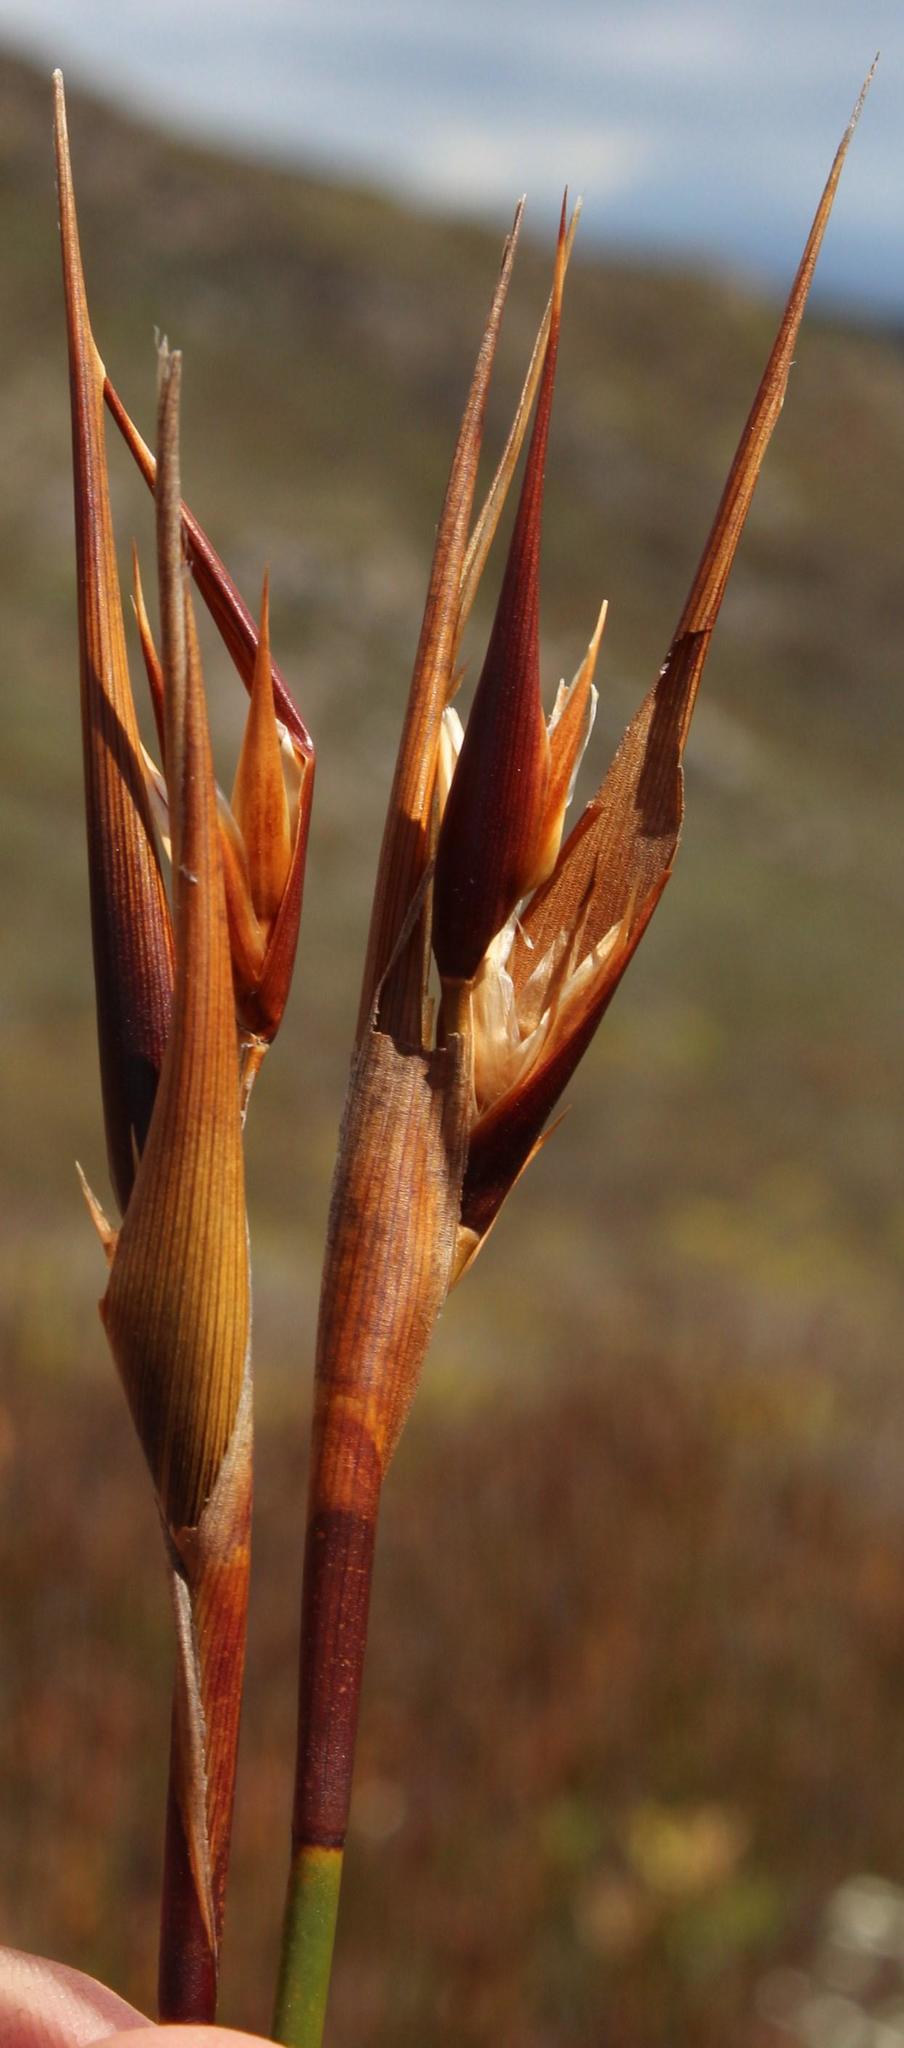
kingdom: Plantae
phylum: Tracheophyta
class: Liliopsida
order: Poales
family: Restionaceae
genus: Ceratocaryum
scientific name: Ceratocaryum decipiens
